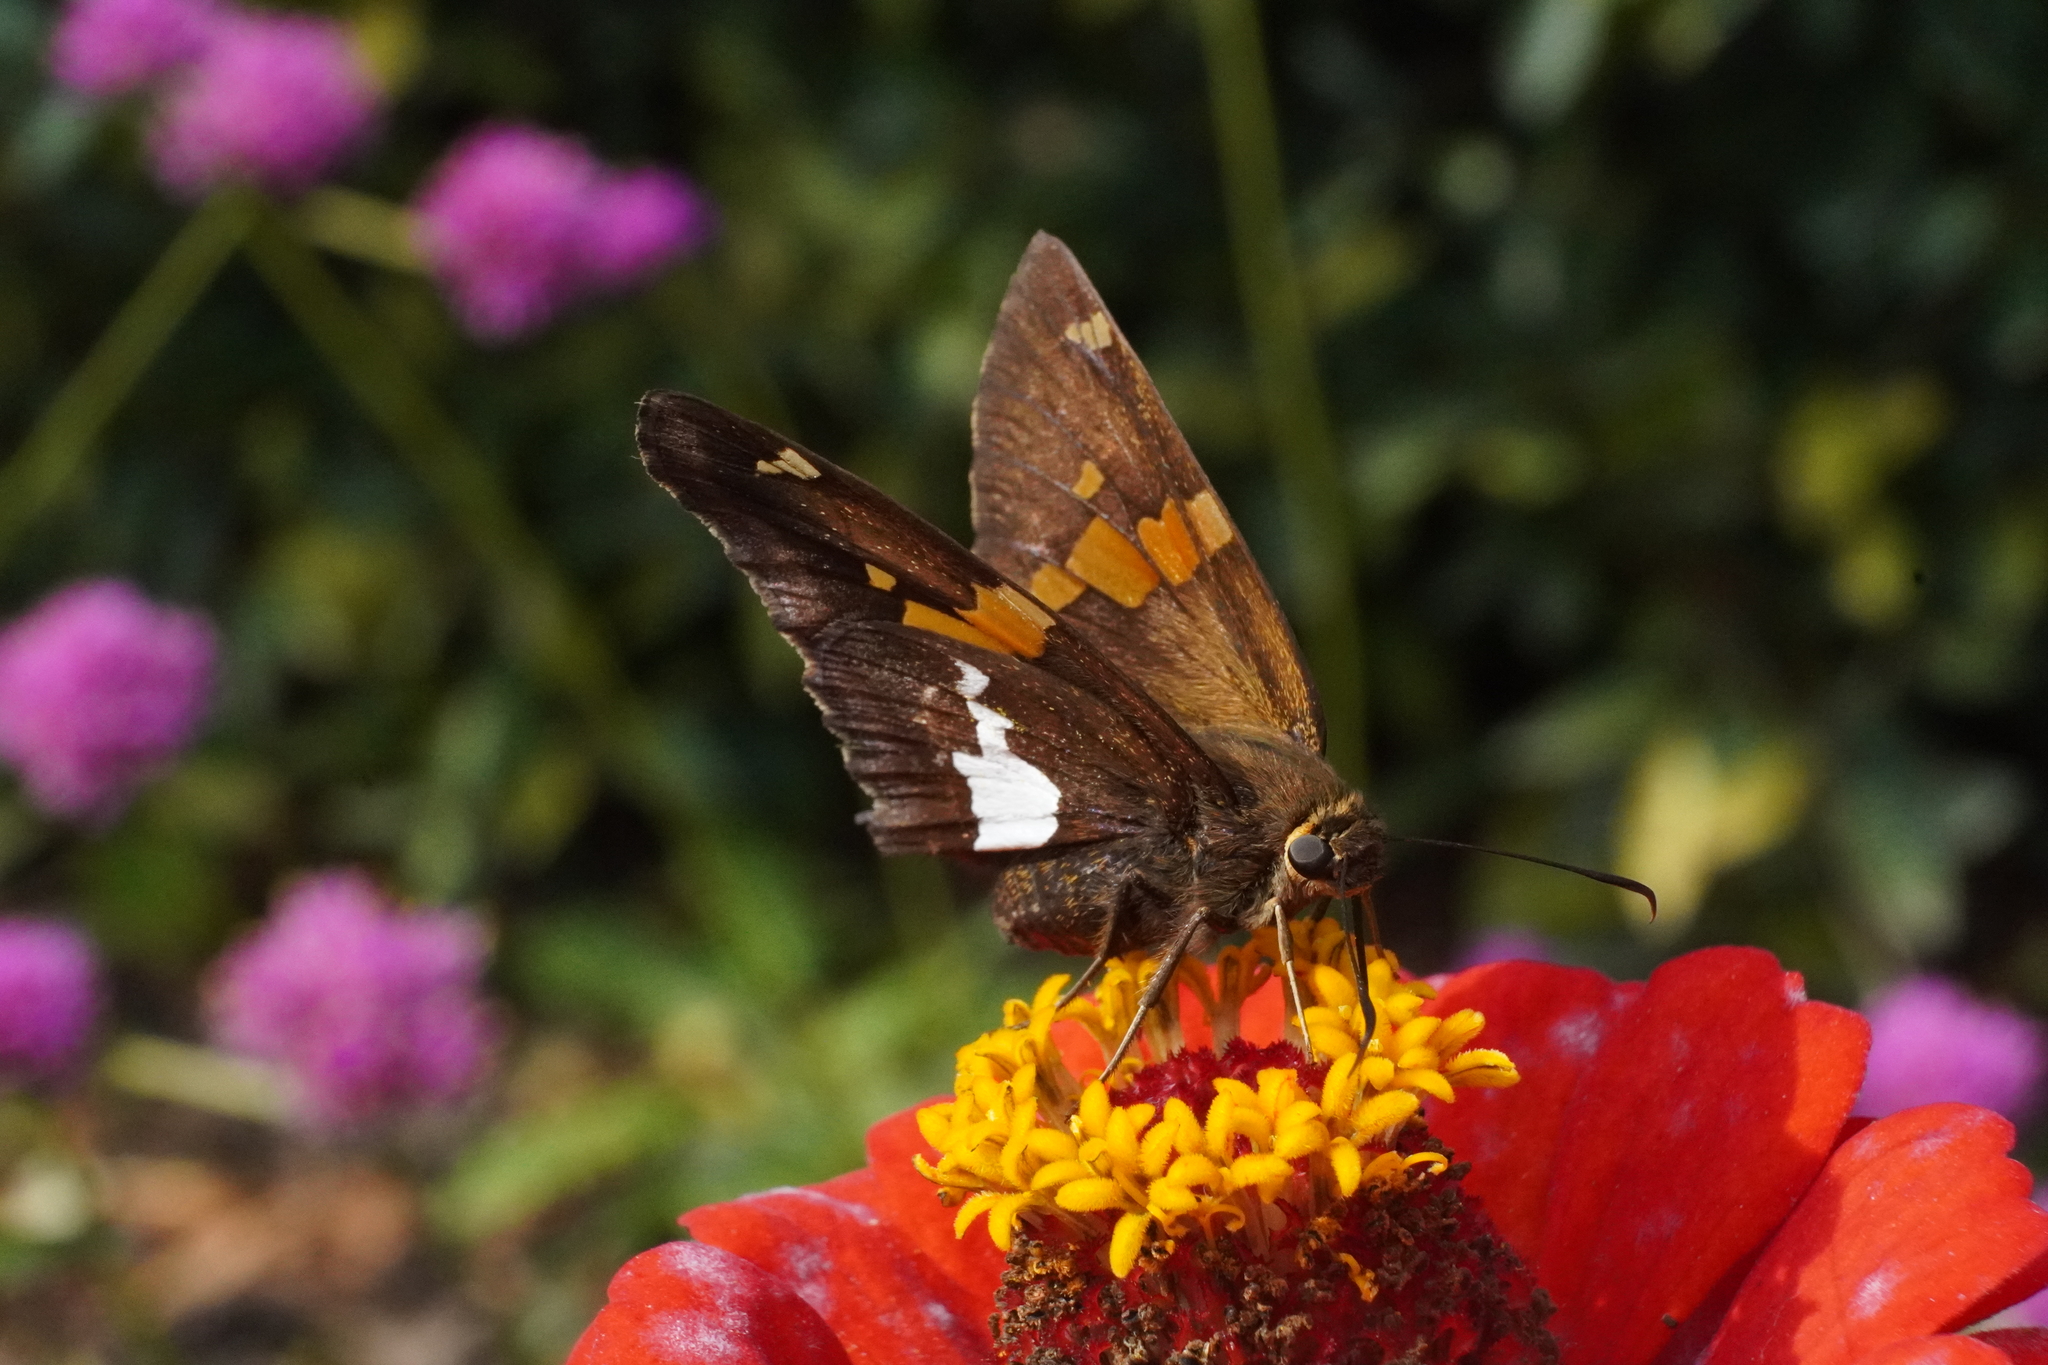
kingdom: Animalia
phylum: Arthropoda
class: Insecta
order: Lepidoptera
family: Hesperiidae
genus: Epargyreus
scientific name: Epargyreus clarus
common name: Silver-spotted skipper
